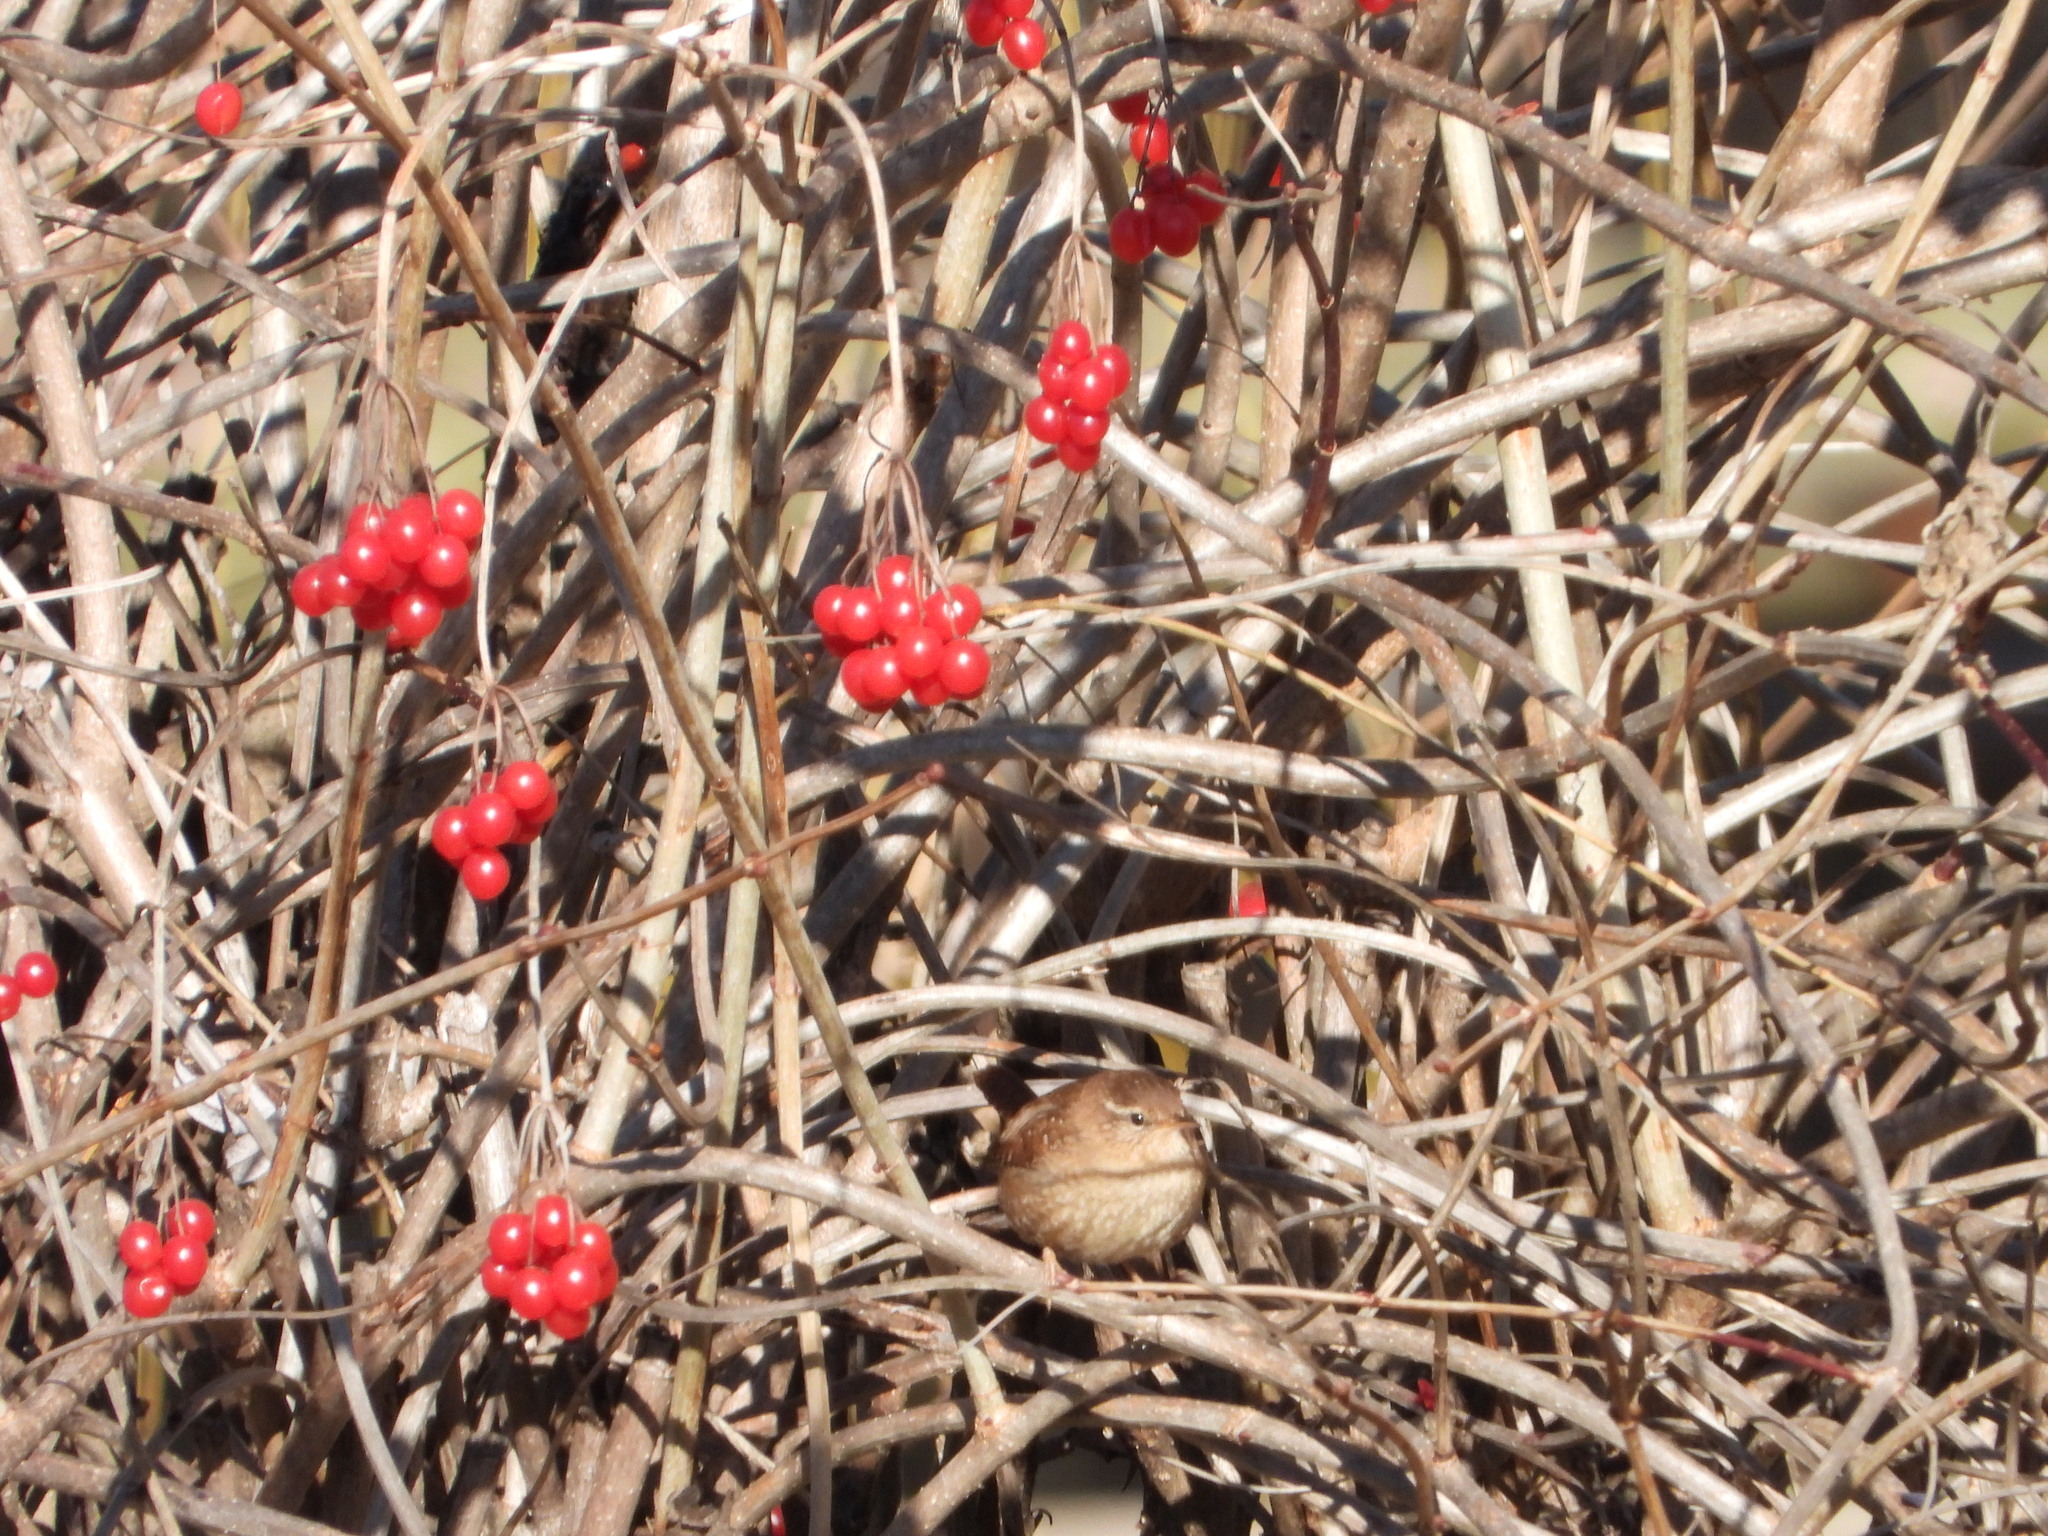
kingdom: Animalia
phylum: Chordata
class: Aves
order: Passeriformes
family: Troglodytidae
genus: Troglodytes
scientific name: Troglodytes troglodytes
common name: Eurasian wren
